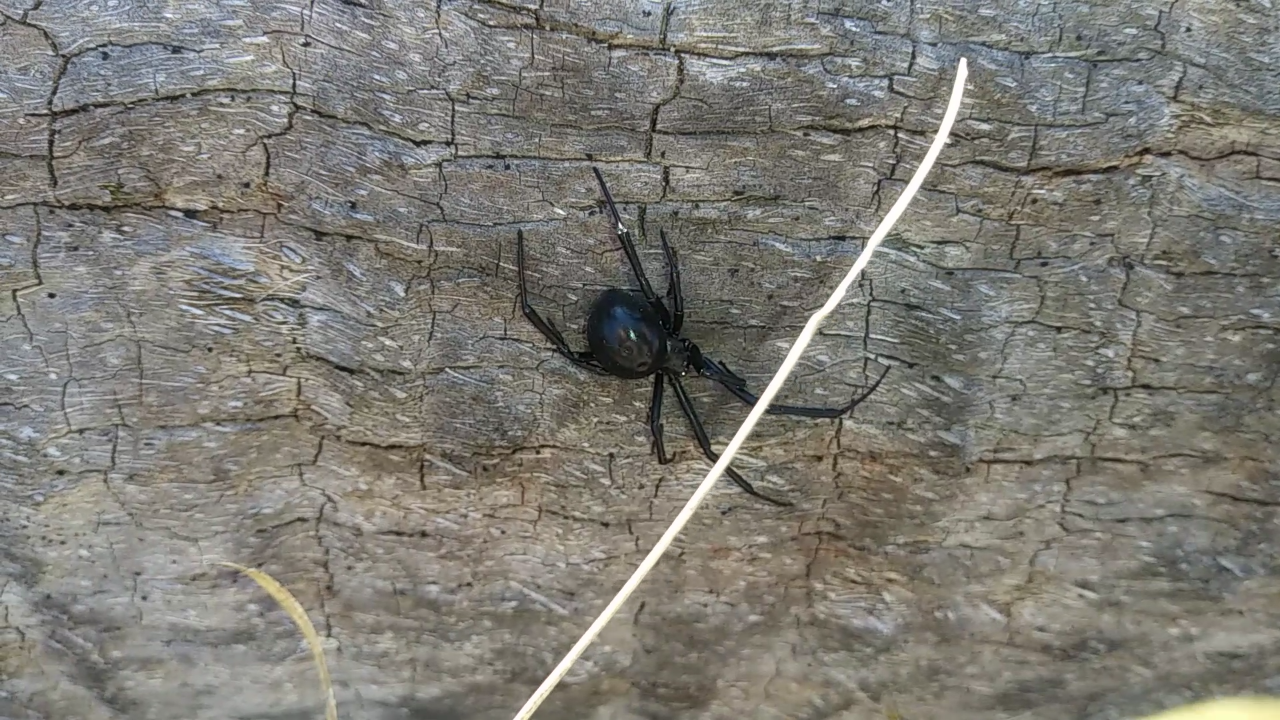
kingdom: Animalia
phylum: Arthropoda
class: Arachnida
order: Araneae
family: Theridiidae
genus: Latrodectus
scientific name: Latrodectus mactans
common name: Cobweb spiders
